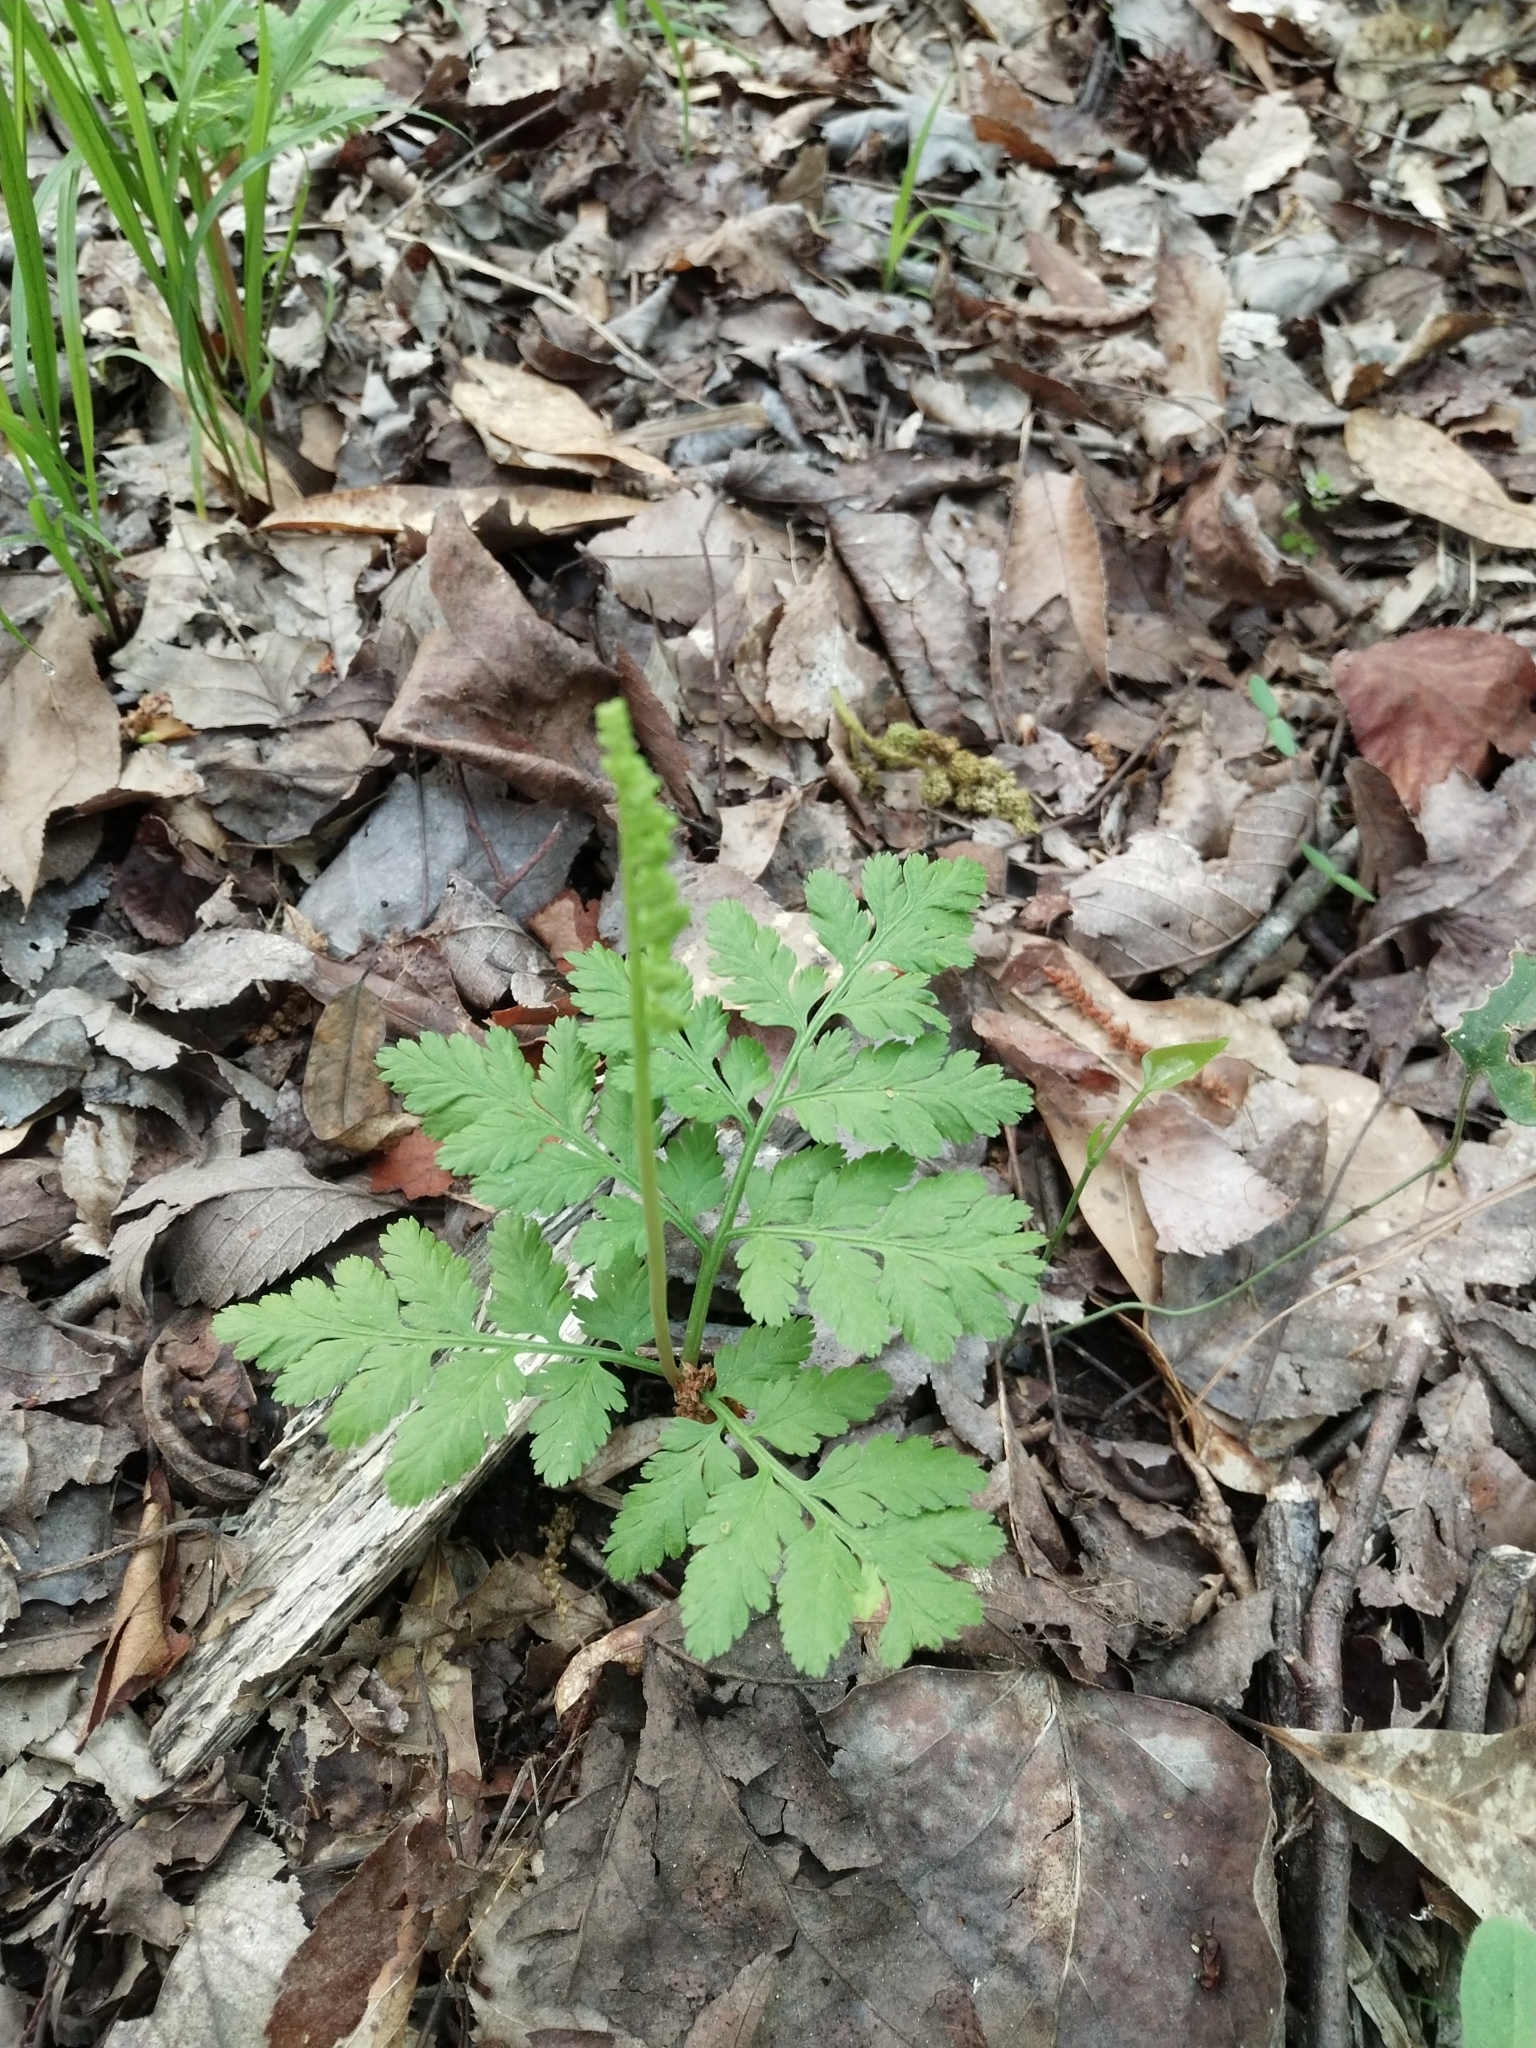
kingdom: Plantae
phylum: Tracheophyta
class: Polypodiopsida
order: Ophioglossales
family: Ophioglossaceae
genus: Botrypus
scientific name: Botrypus virginianus
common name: Common grapefern
